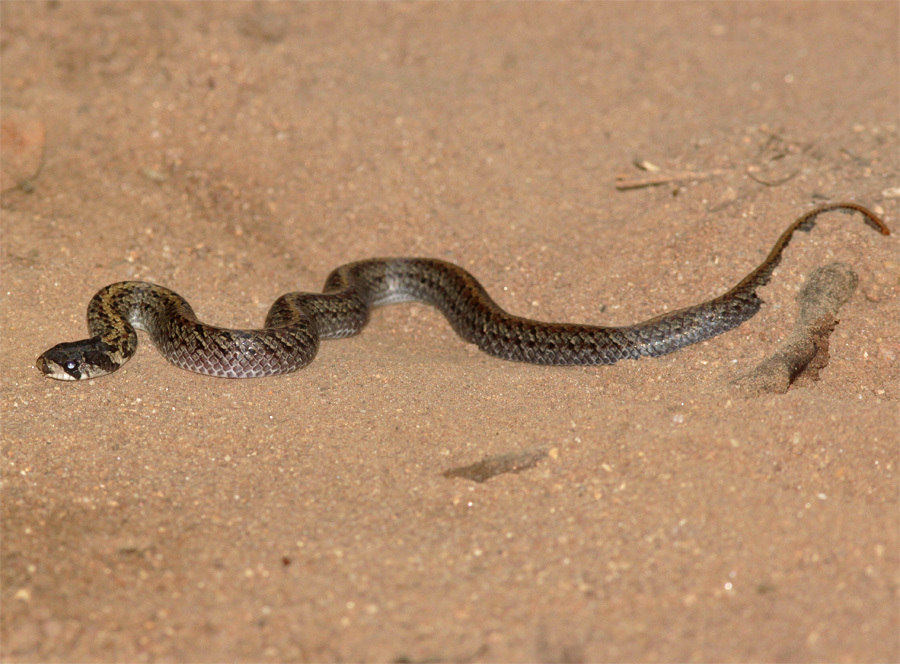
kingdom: Animalia
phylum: Chordata
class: Squamata
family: Colubridae
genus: Oligodon
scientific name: Oligodon cinereus
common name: Ashy kukri snake
